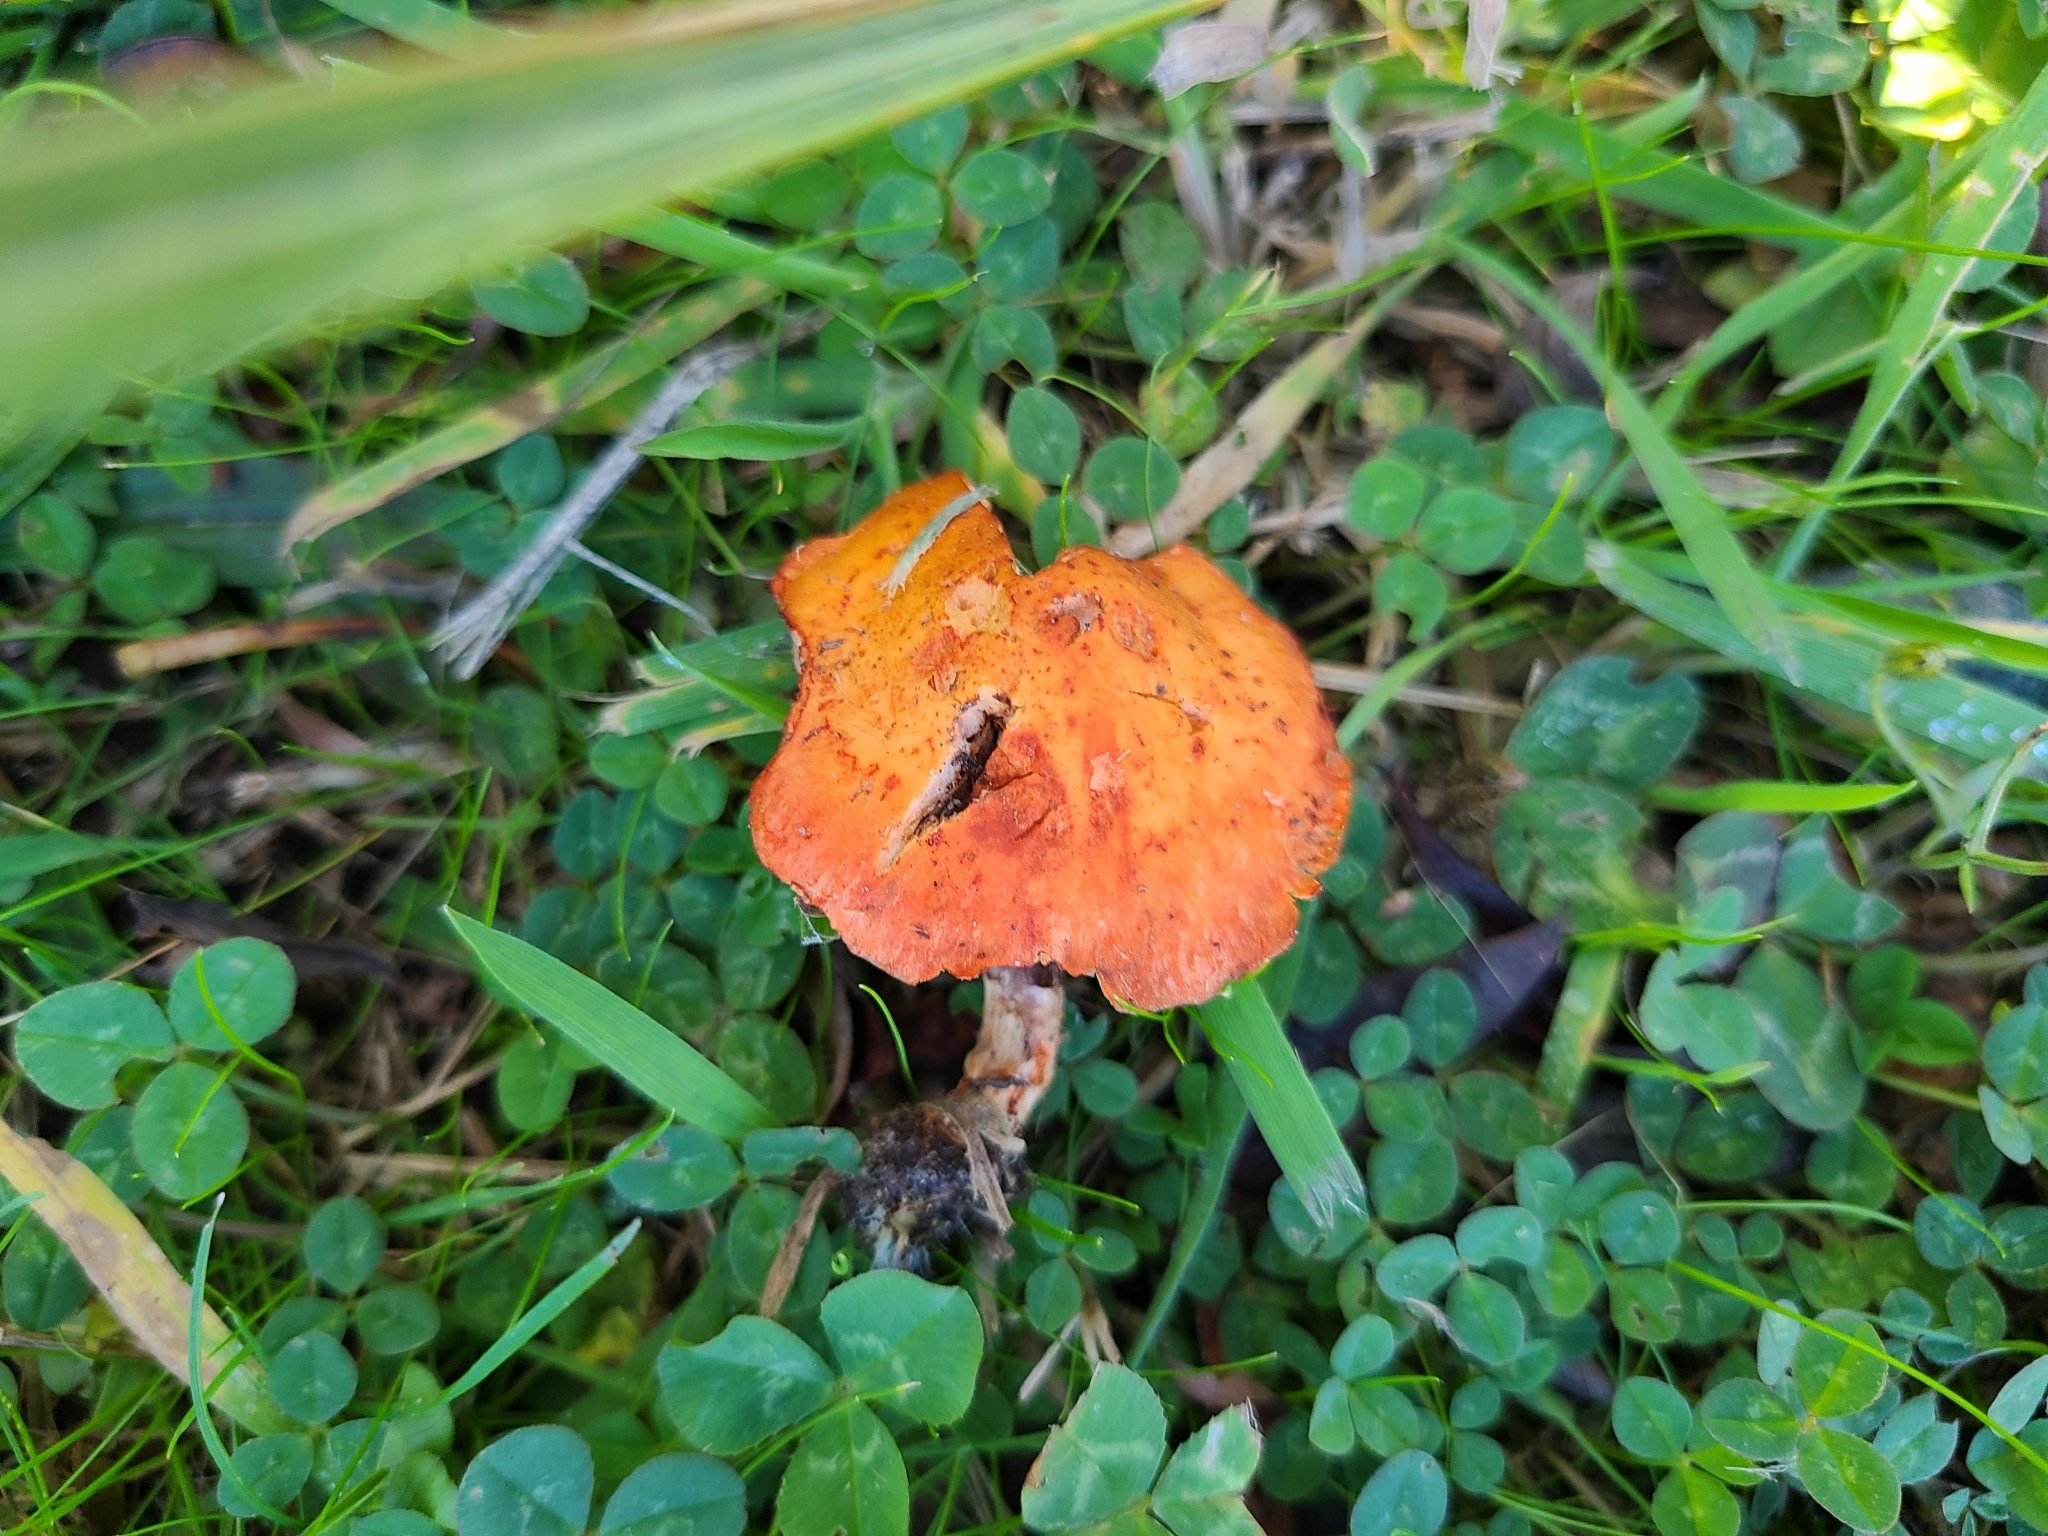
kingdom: Fungi
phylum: Basidiomycota
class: Agaricomycetes
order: Agaricales
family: Strophariaceae
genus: Leratiomyces
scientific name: Leratiomyces ceres
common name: Redlead roundhead
